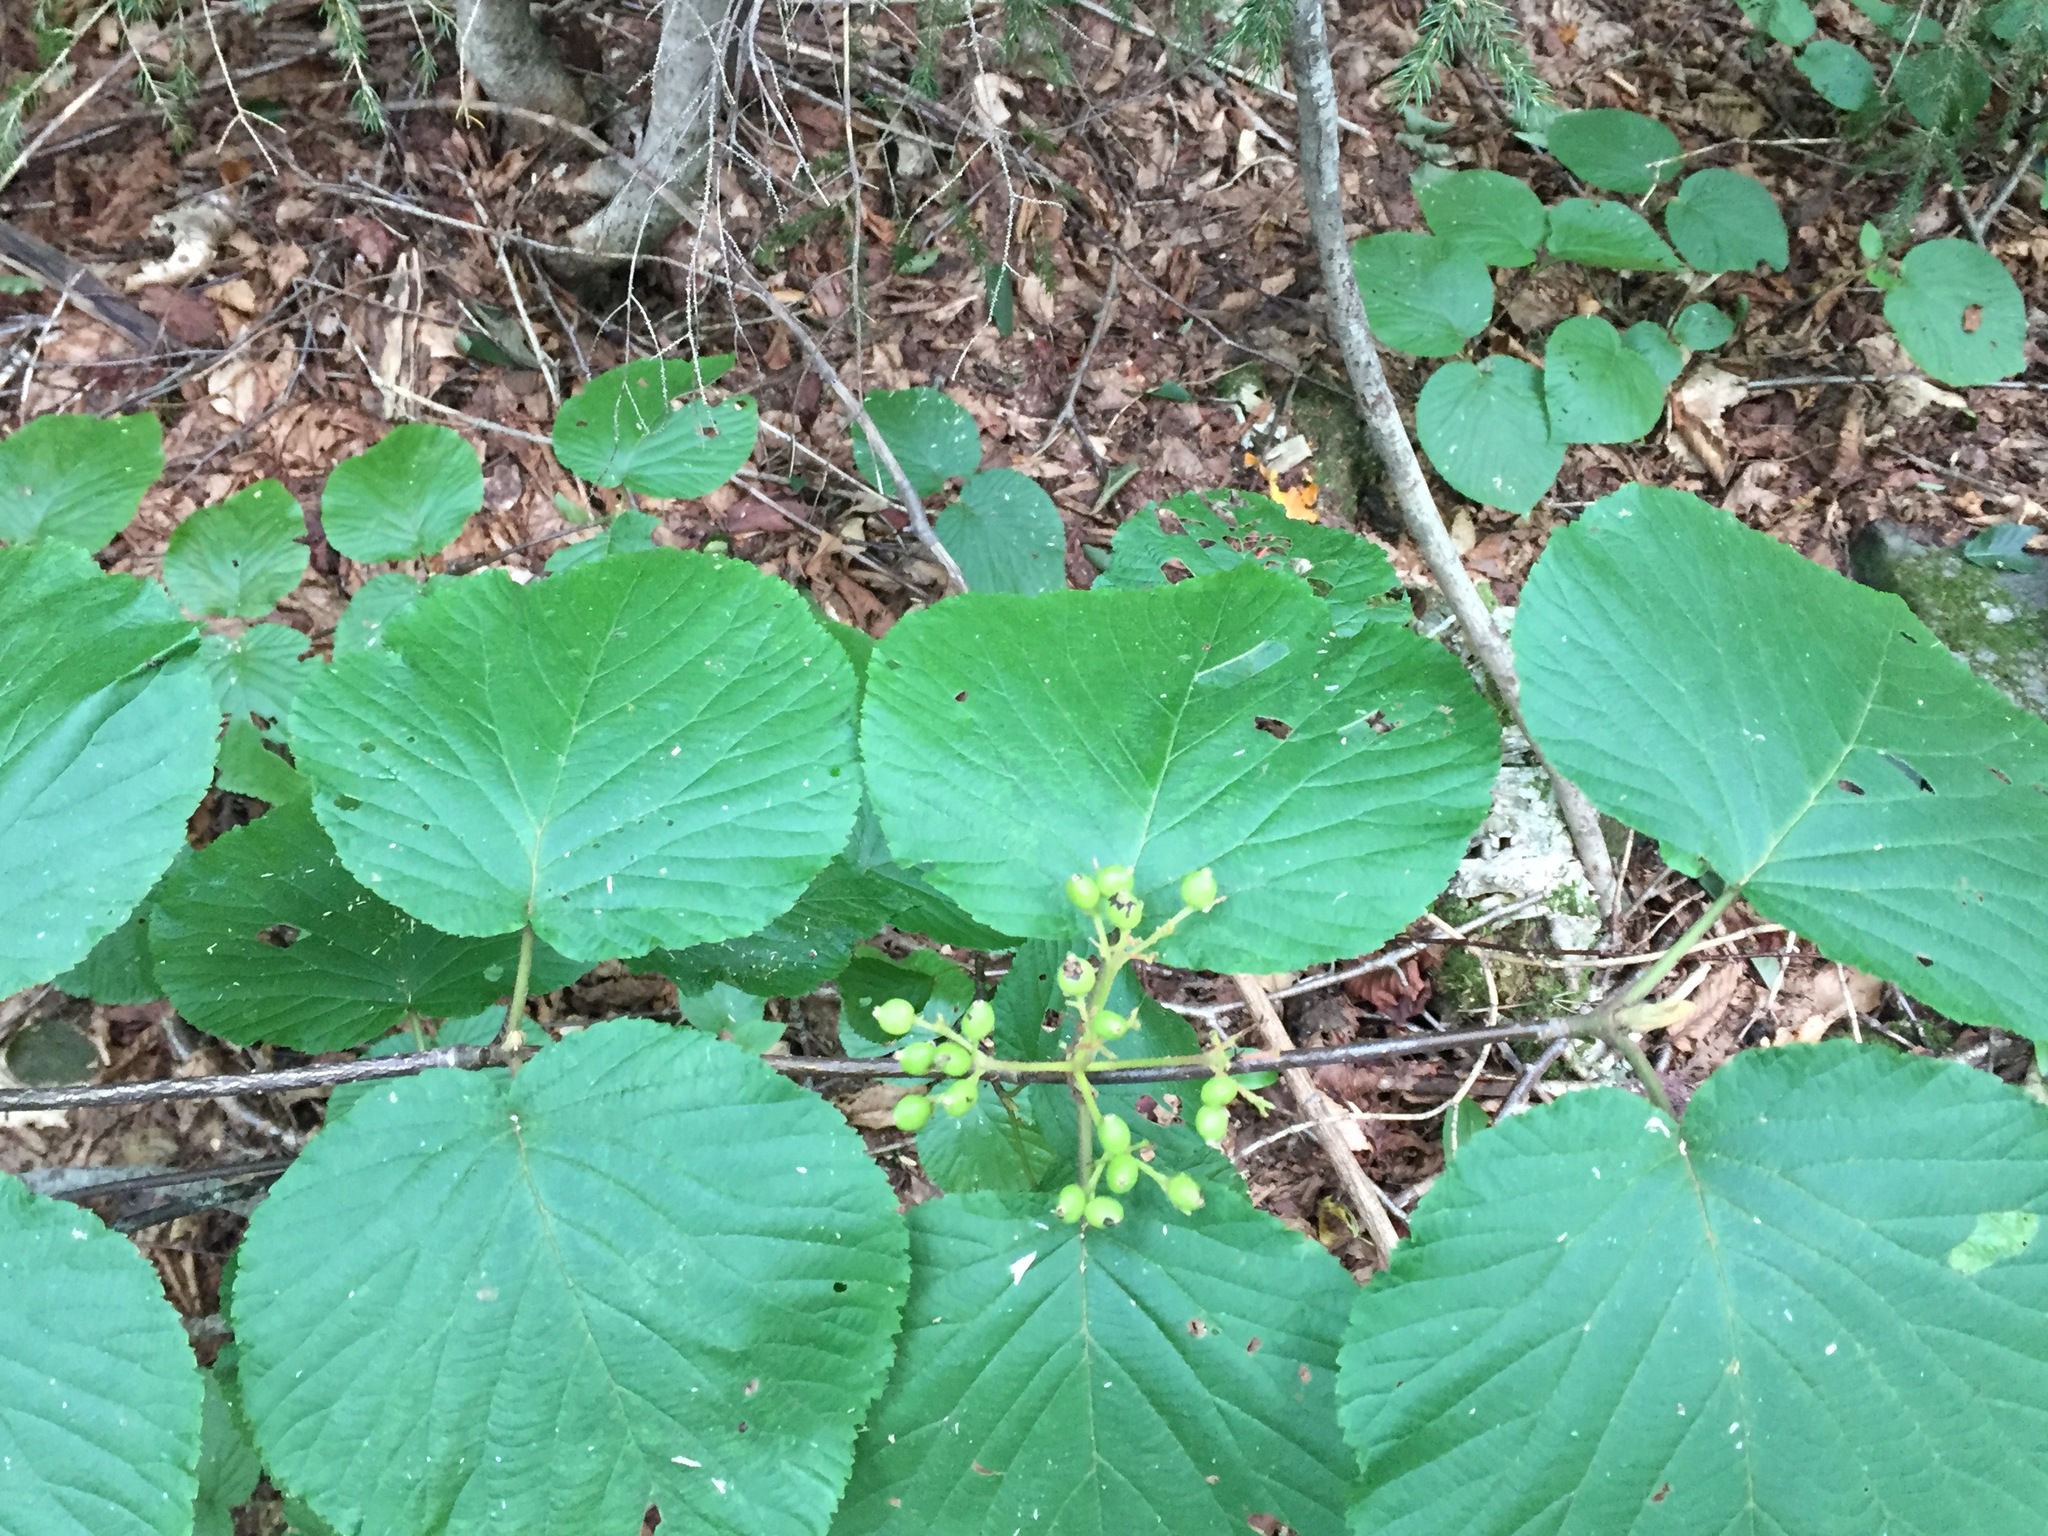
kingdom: Plantae
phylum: Tracheophyta
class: Magnoliopsida
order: Dipsacales
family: Viburnaceae
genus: Viburnum
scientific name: Viburnum lantanoides
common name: Hobblebush
